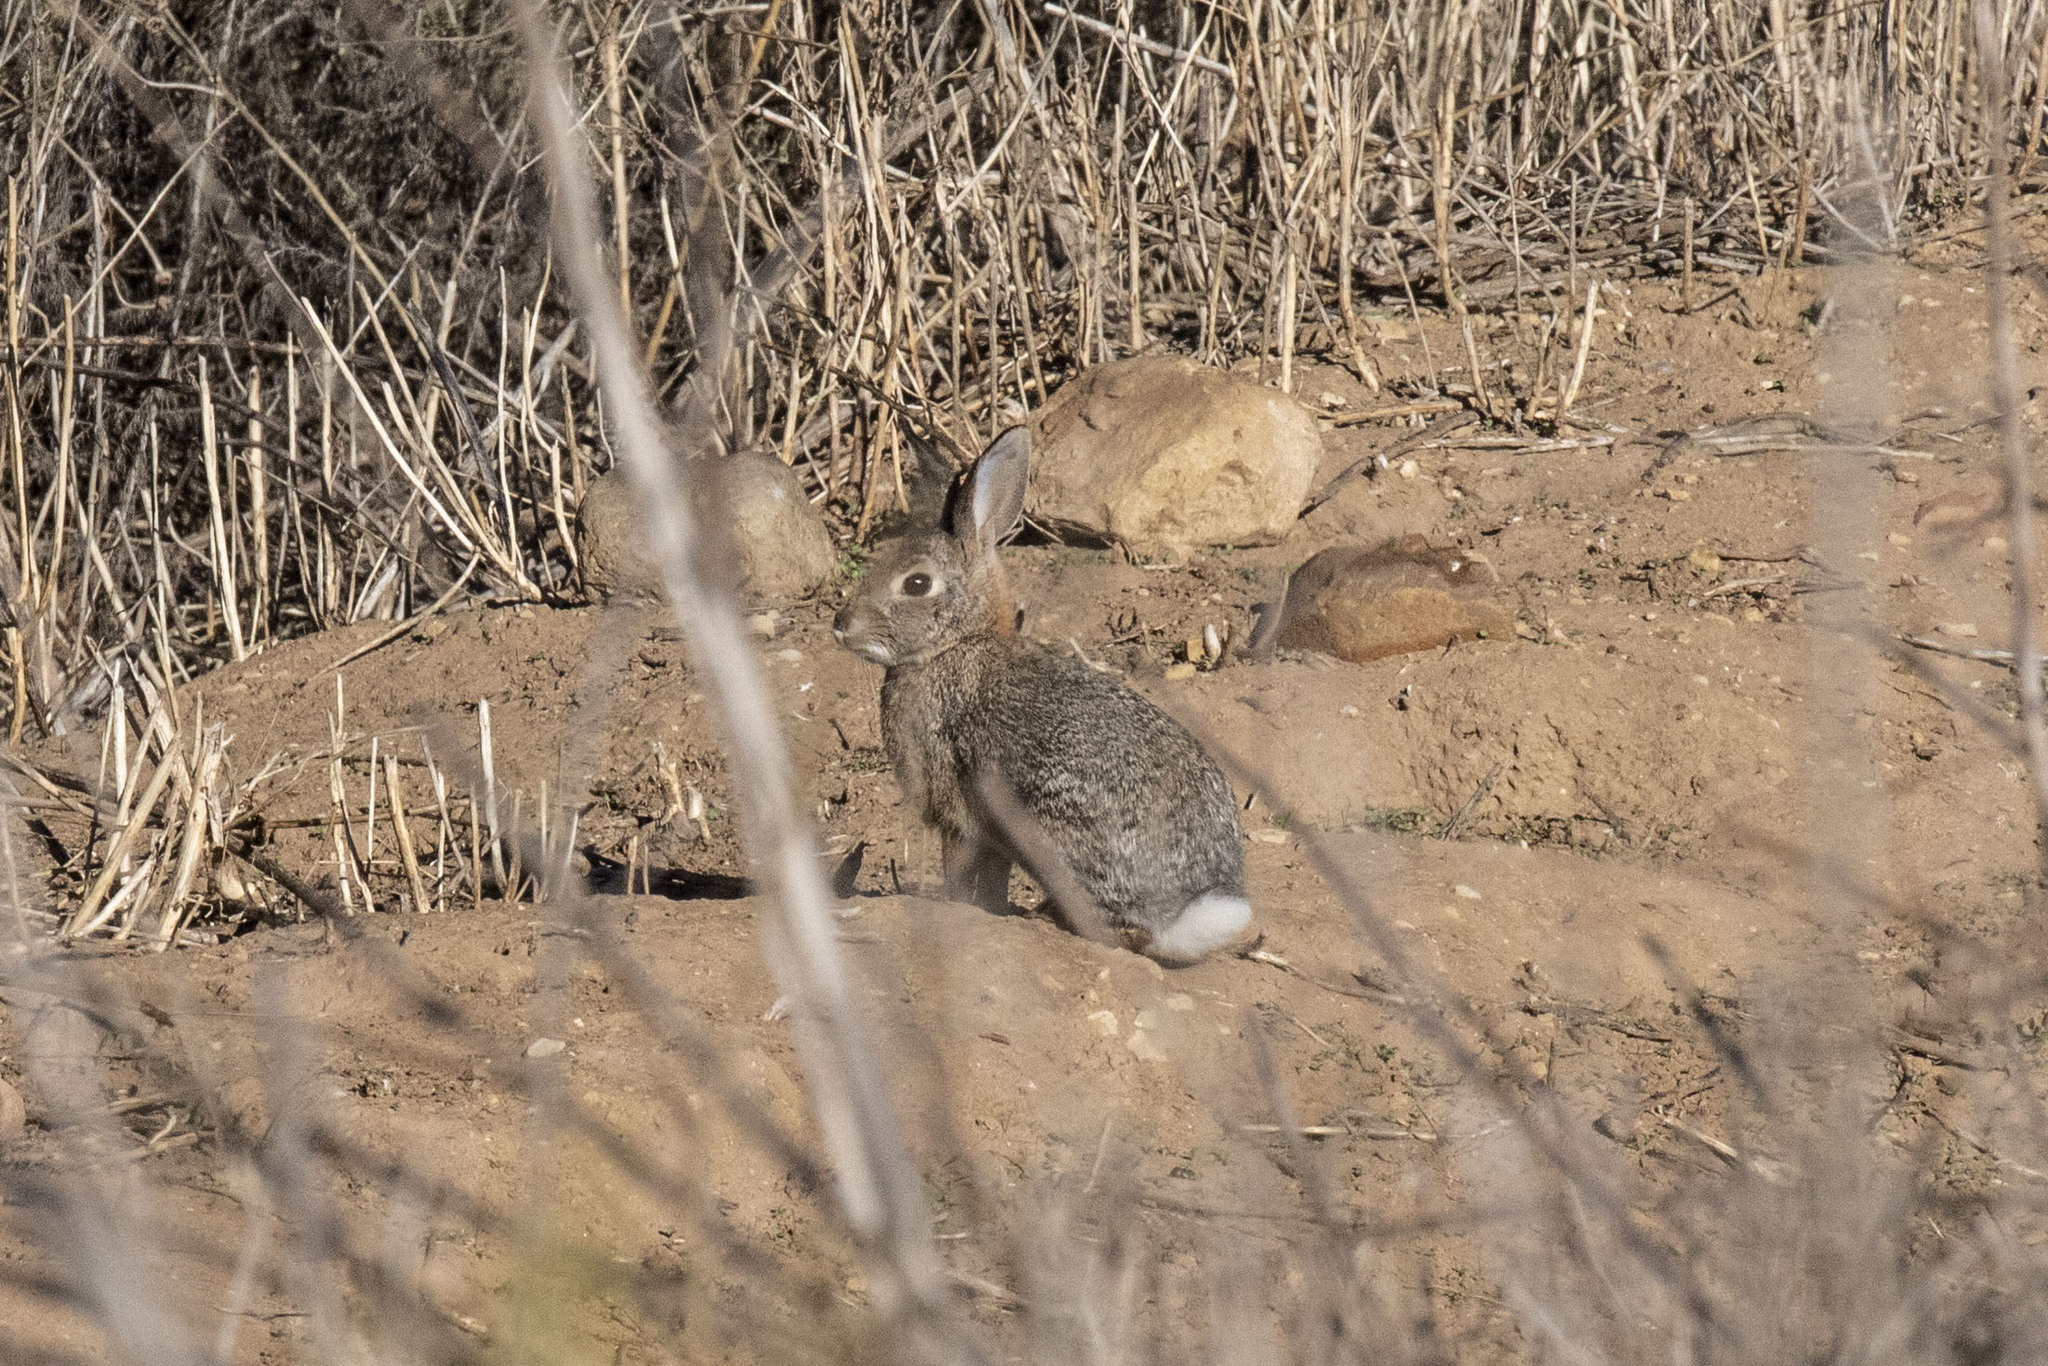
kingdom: Animalia
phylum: Chordata
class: Mammalia
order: Lagomorpha
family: Leporidae
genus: Sylvilagus
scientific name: Sylvilagus audubonii
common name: Desert cottontail
